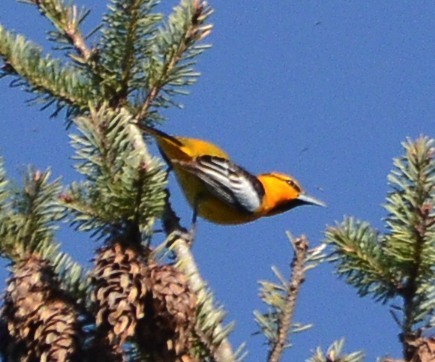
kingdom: Animalia
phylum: Chordata
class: Aves
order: Passeriformes
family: Icteridae
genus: Icterus
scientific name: Icterus bullockii
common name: Bullock's oriole
